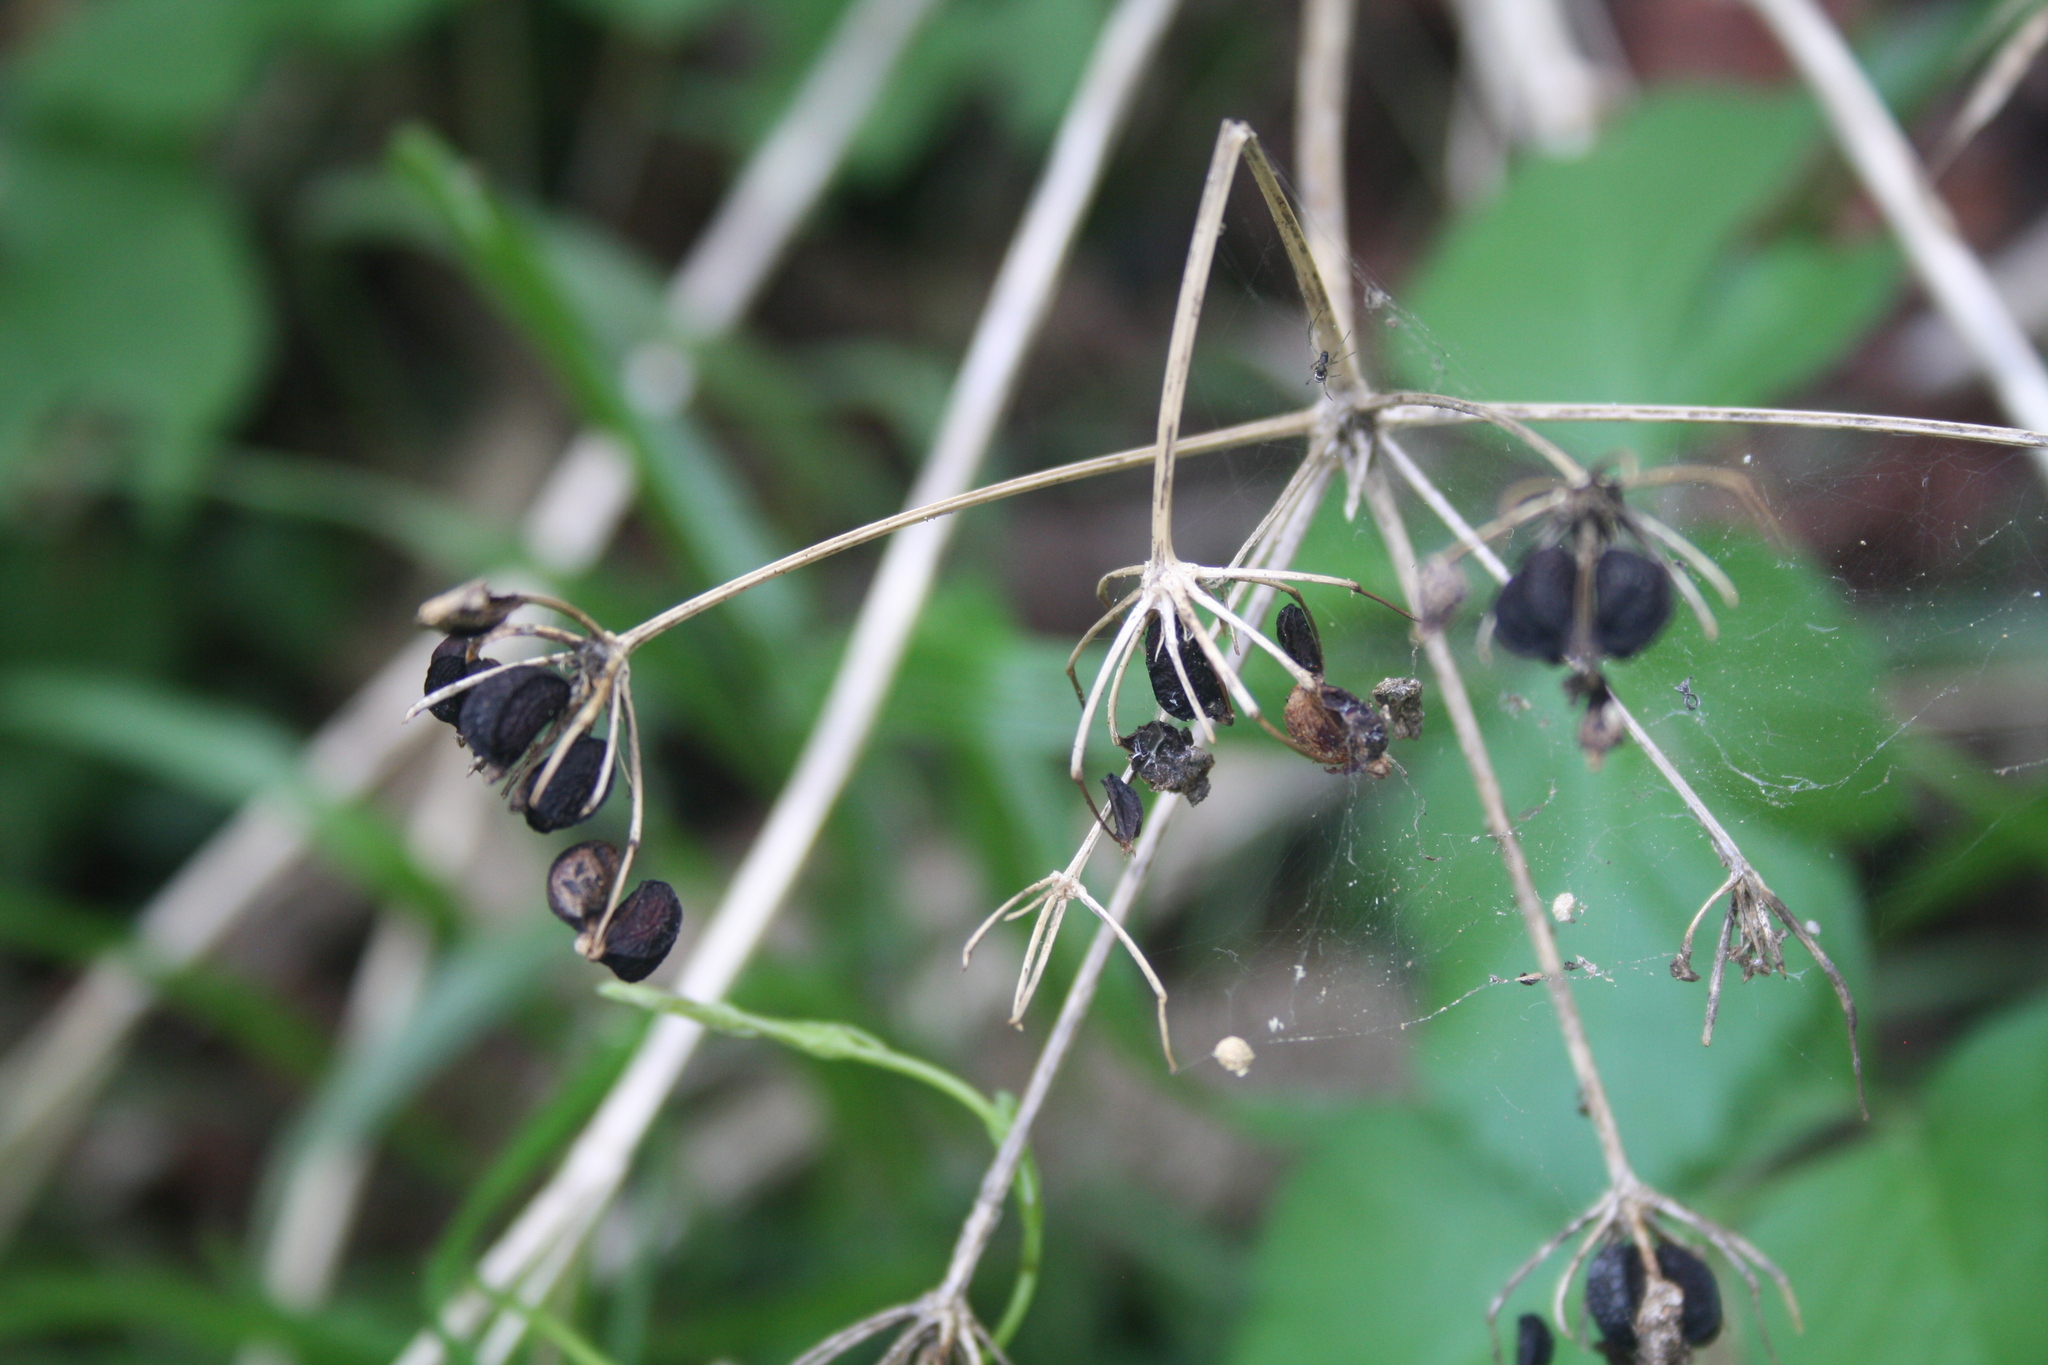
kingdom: Plantae
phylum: Tracheophyta
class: Magnoliopsida
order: Apiales
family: Apiaceae
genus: Smyrnium
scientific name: Smyrnium olusatrum
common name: Alexanders
